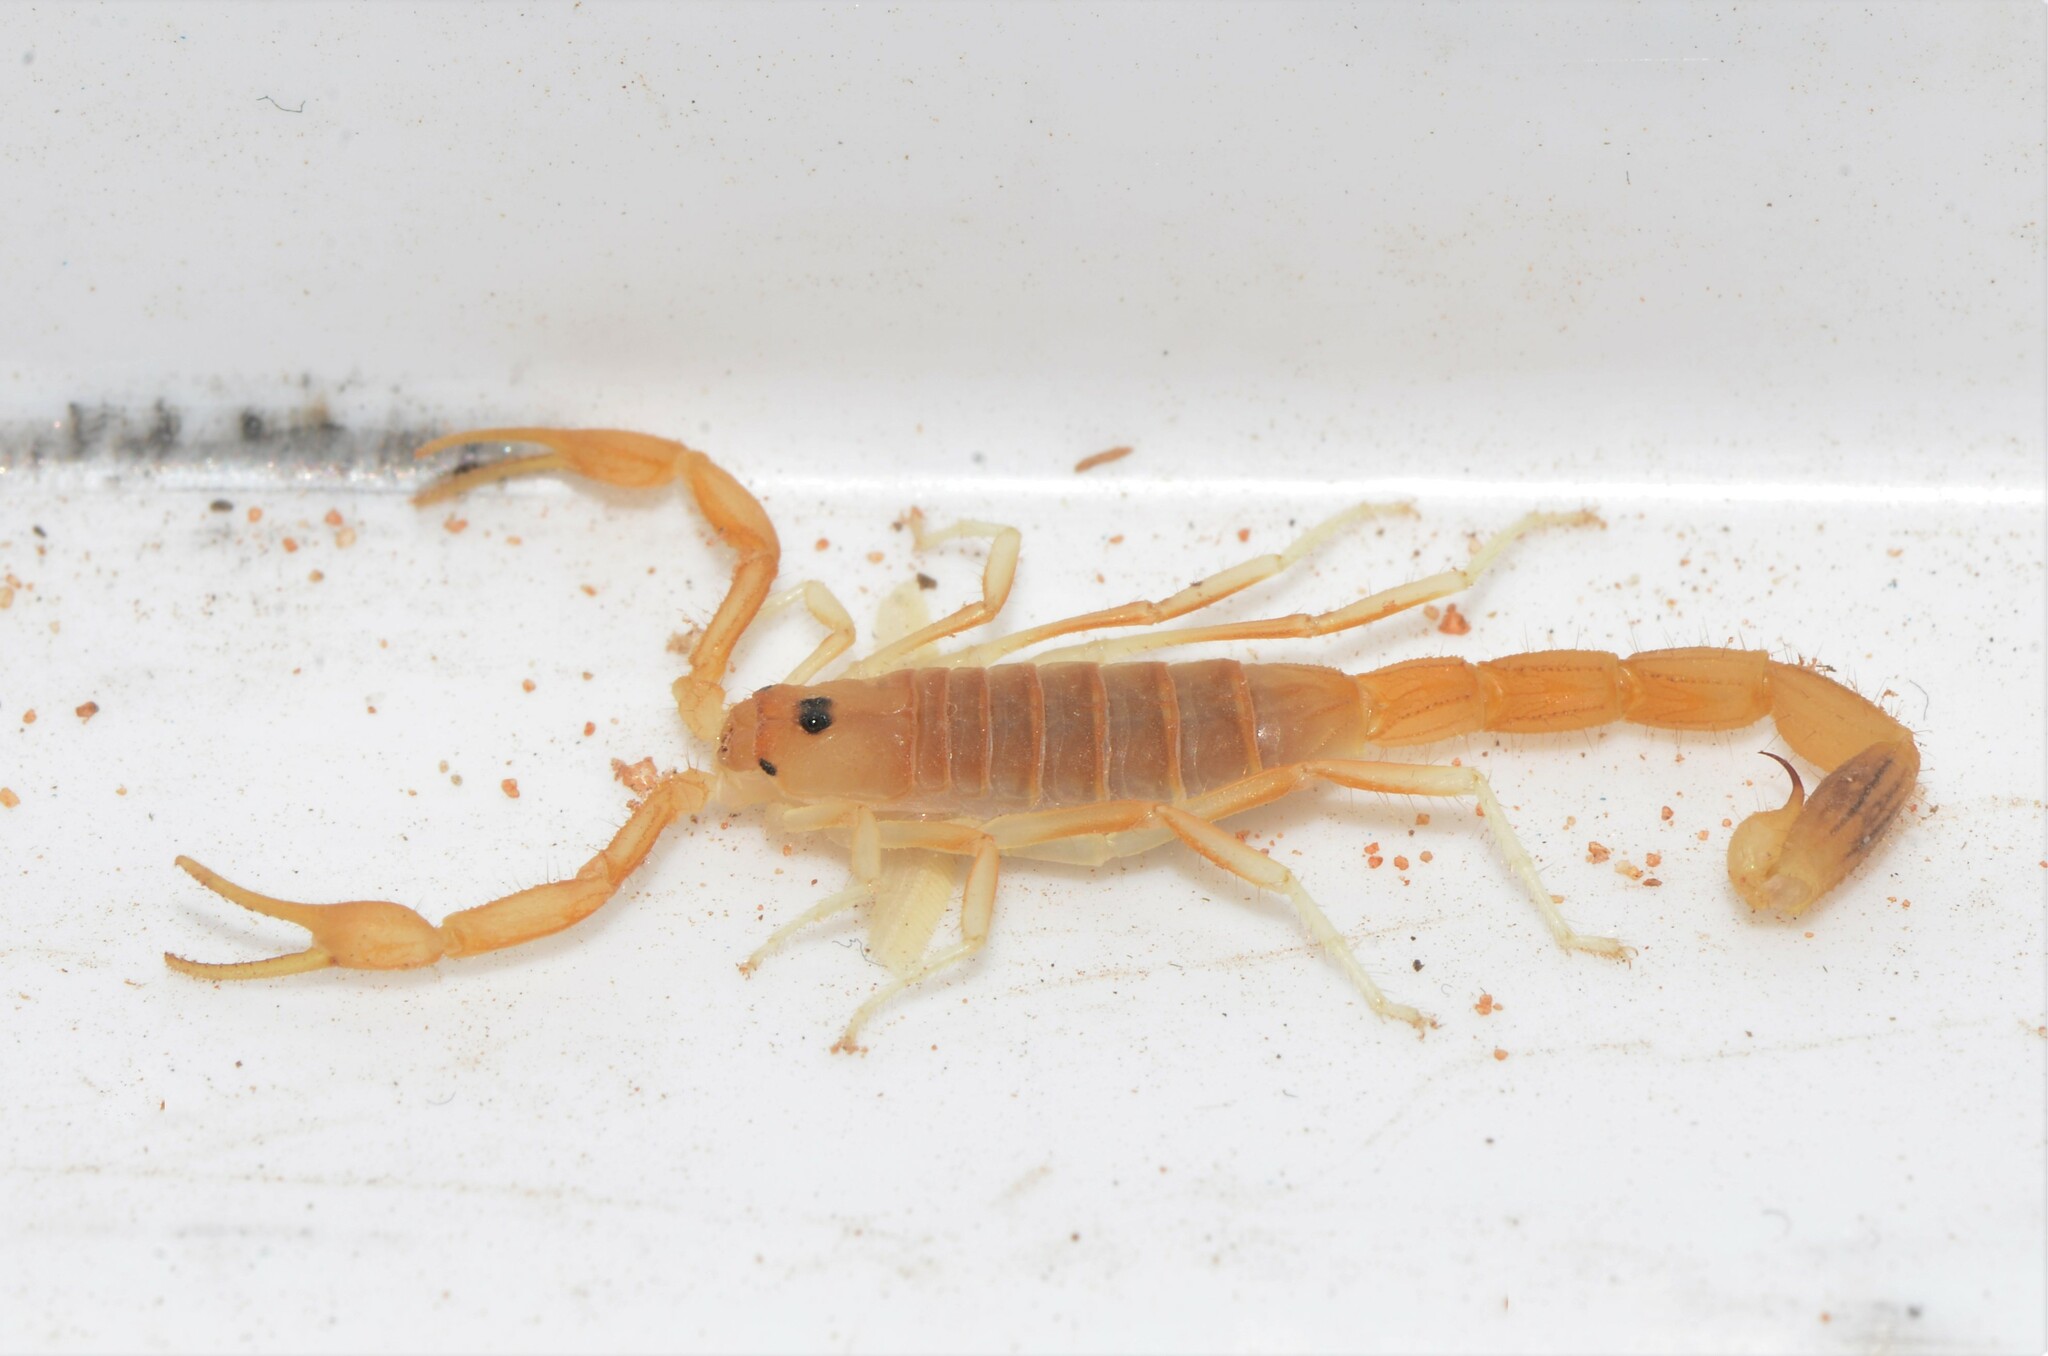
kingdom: Animalia
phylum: Arthropoda
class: Arachnida
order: Scorpiones
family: Buthidae
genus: Uroplectes
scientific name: Uroplectes gracilior
